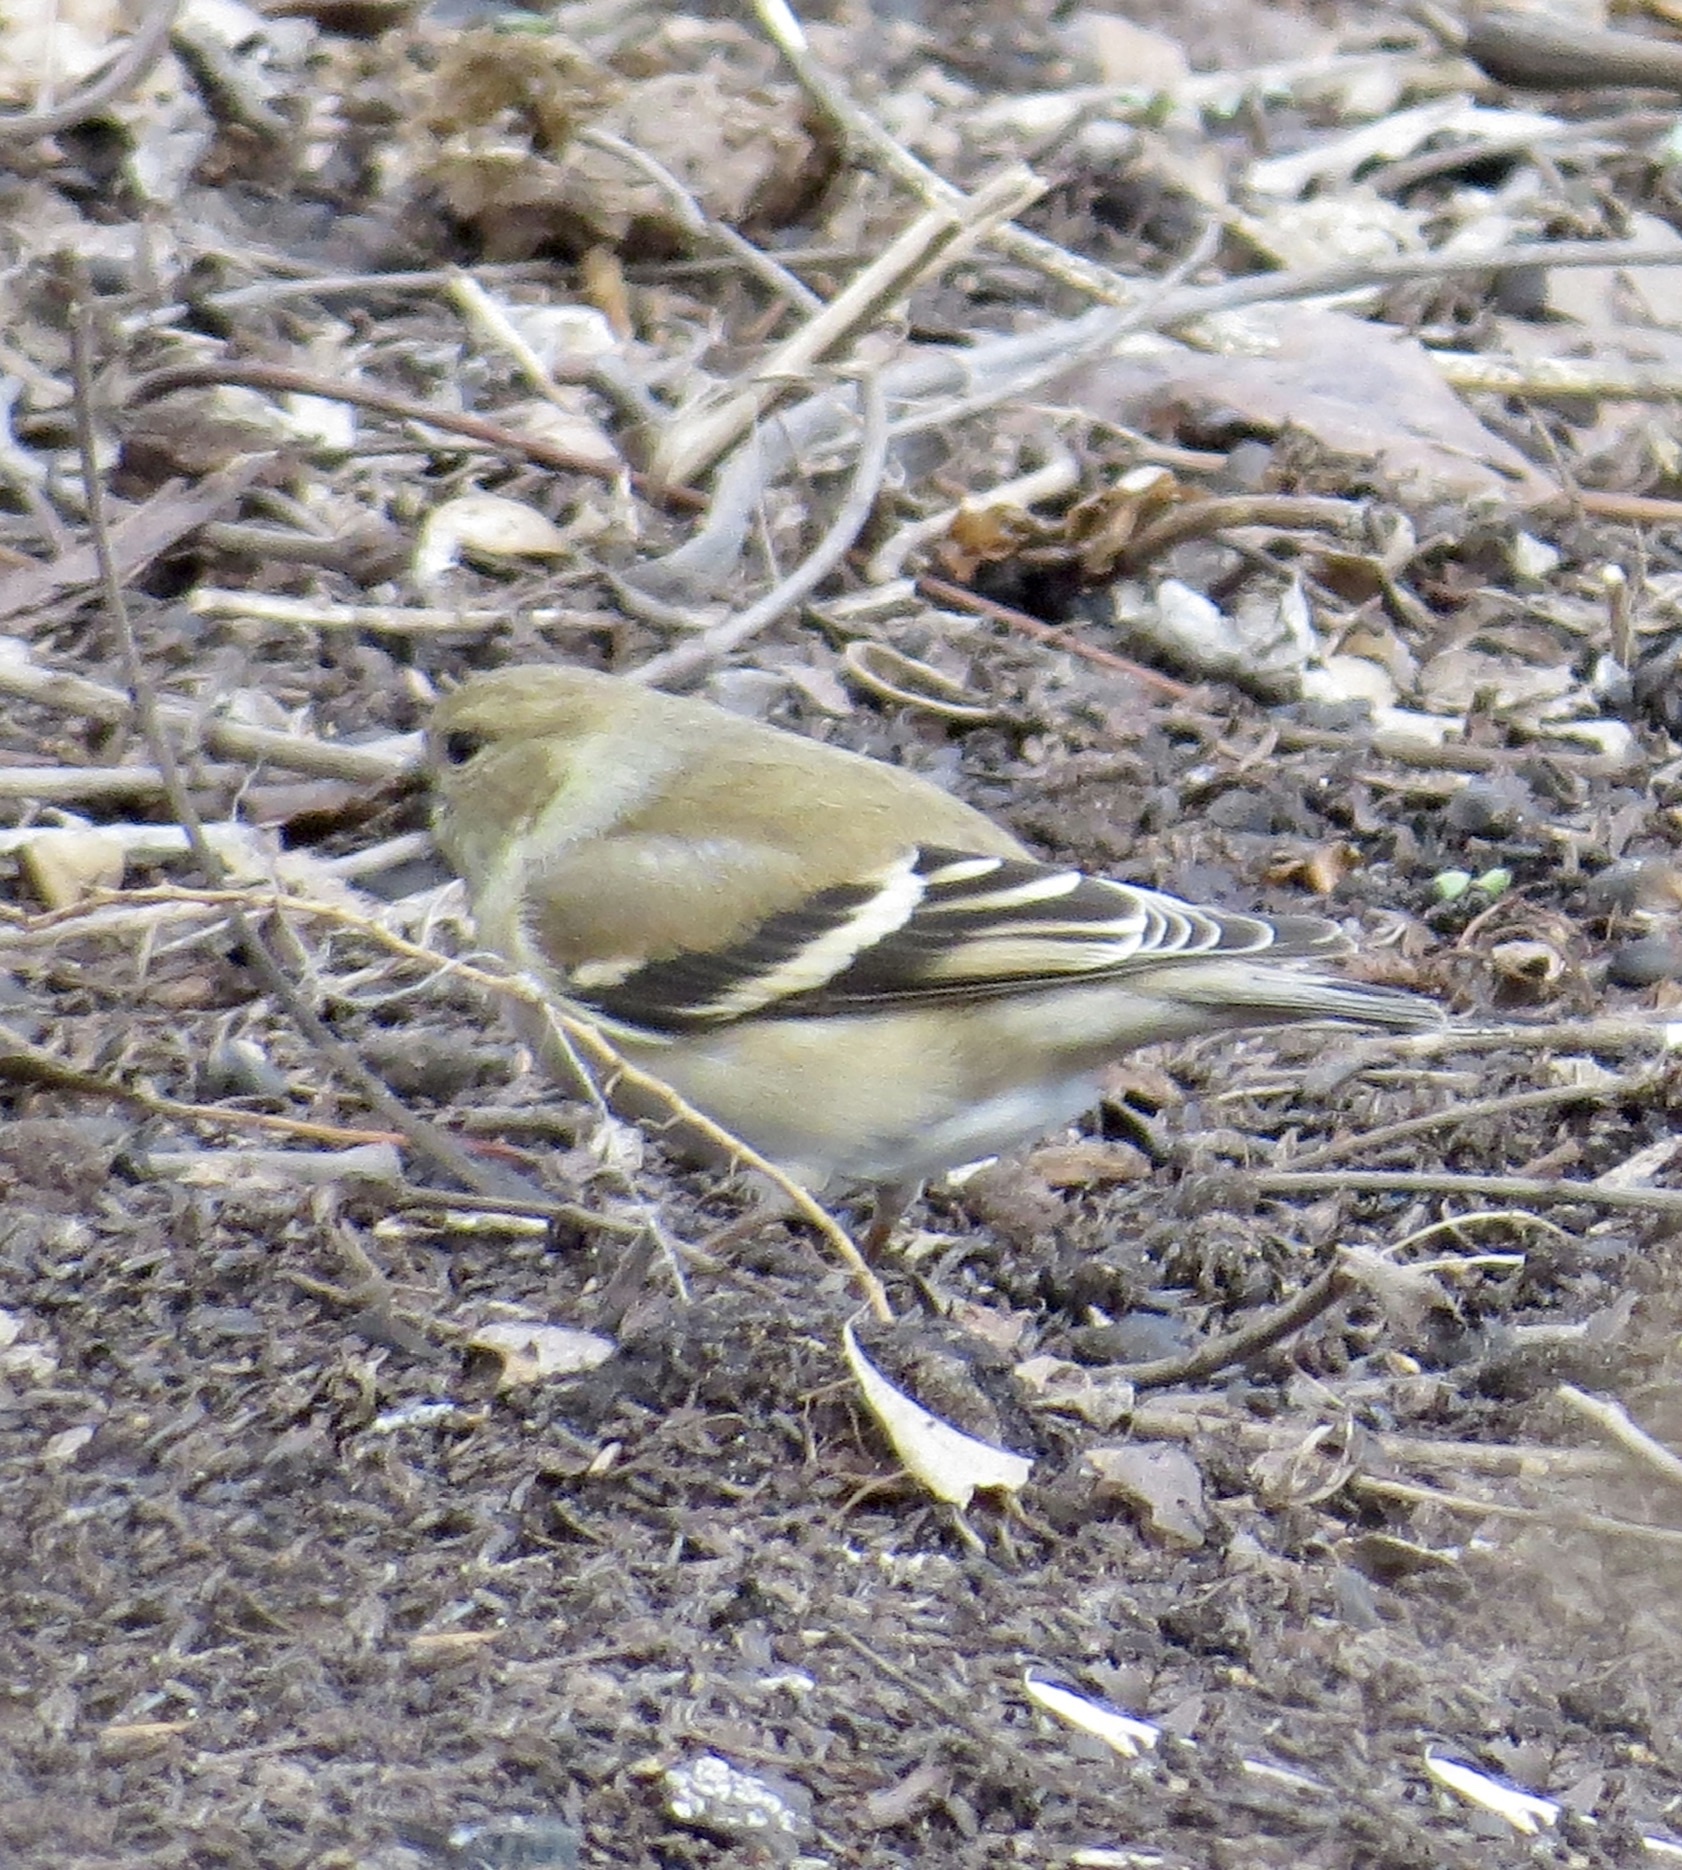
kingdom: Animalia
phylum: Chordata
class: Aves
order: Passeriformes
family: Fringillidae
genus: Spinus
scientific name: Spinus tristis
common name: American goldfinch
